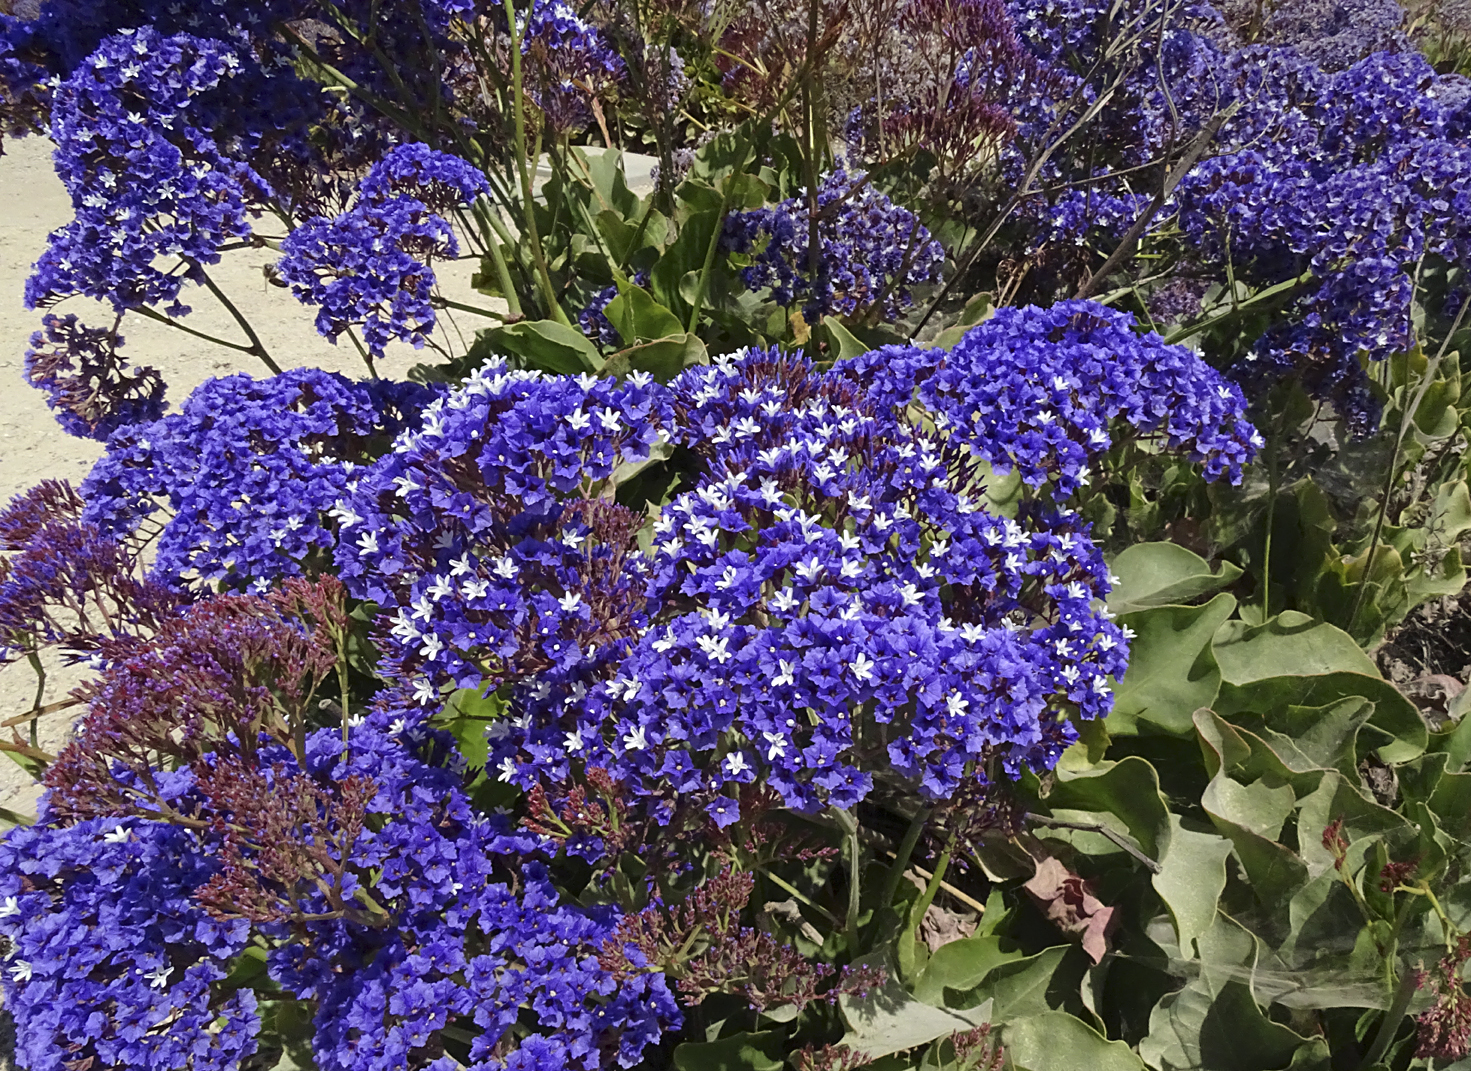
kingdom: Plantae
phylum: Tracheophyta
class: Magnoliopsida
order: Caryophyllales
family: Plumbaginaceae
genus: Limonium
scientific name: Limonium perezii
